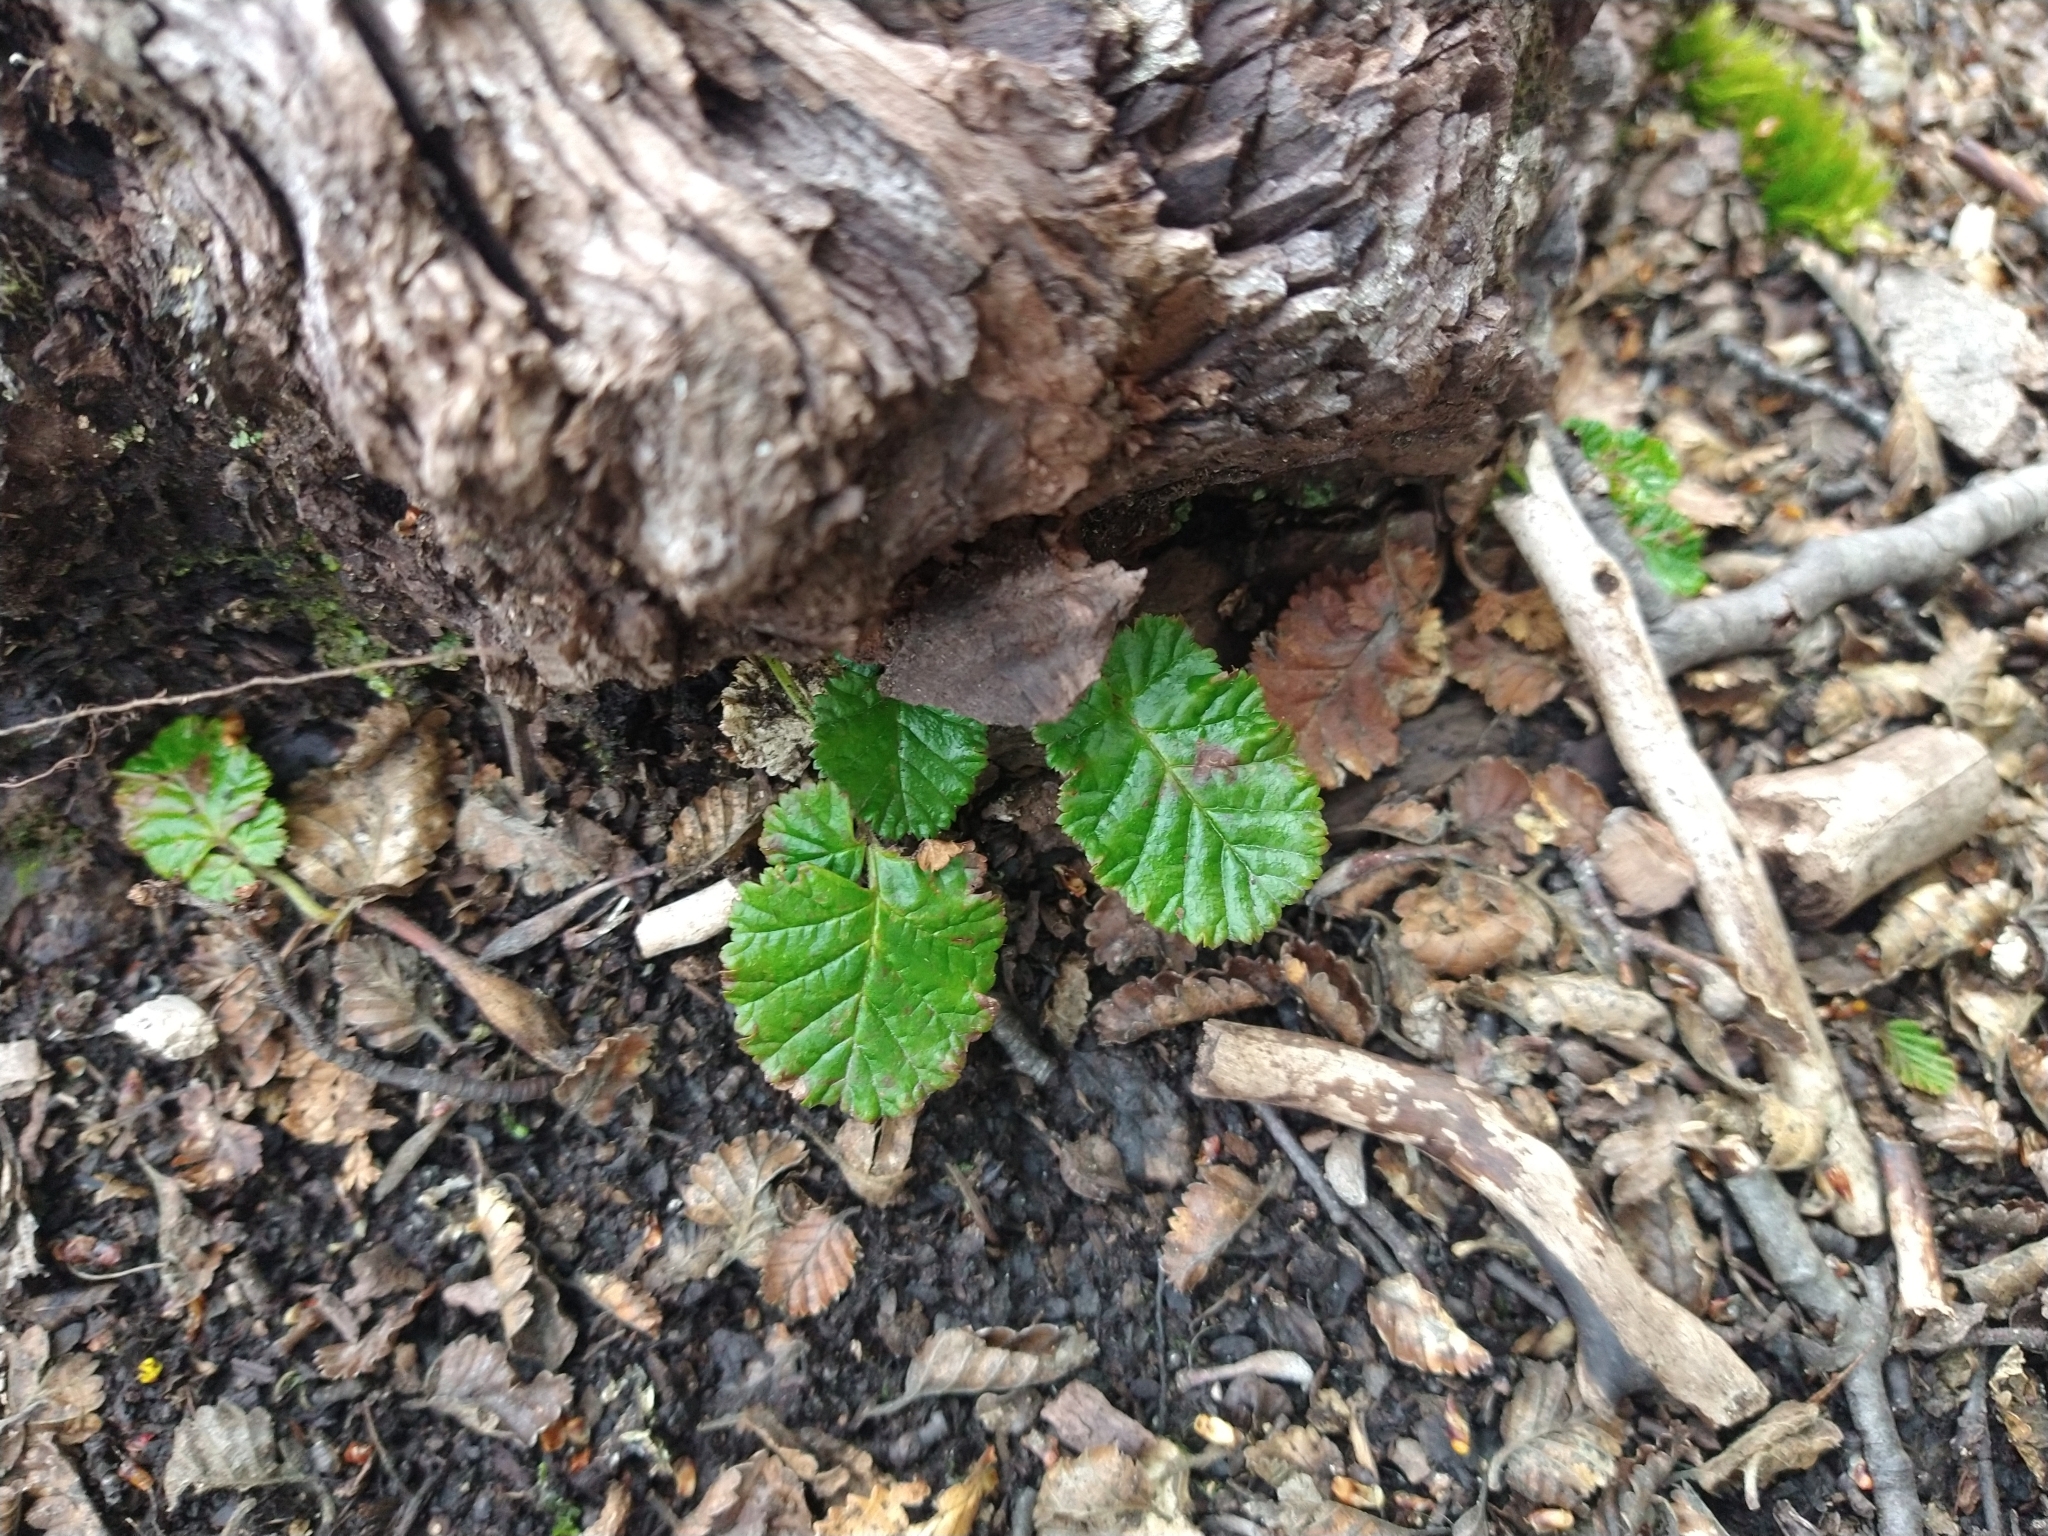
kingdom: Plantae
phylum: Tracheophyta
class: Magnoliopsida
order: Rosales
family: Rosaceae
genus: Rubus
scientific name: Rubus geoides
